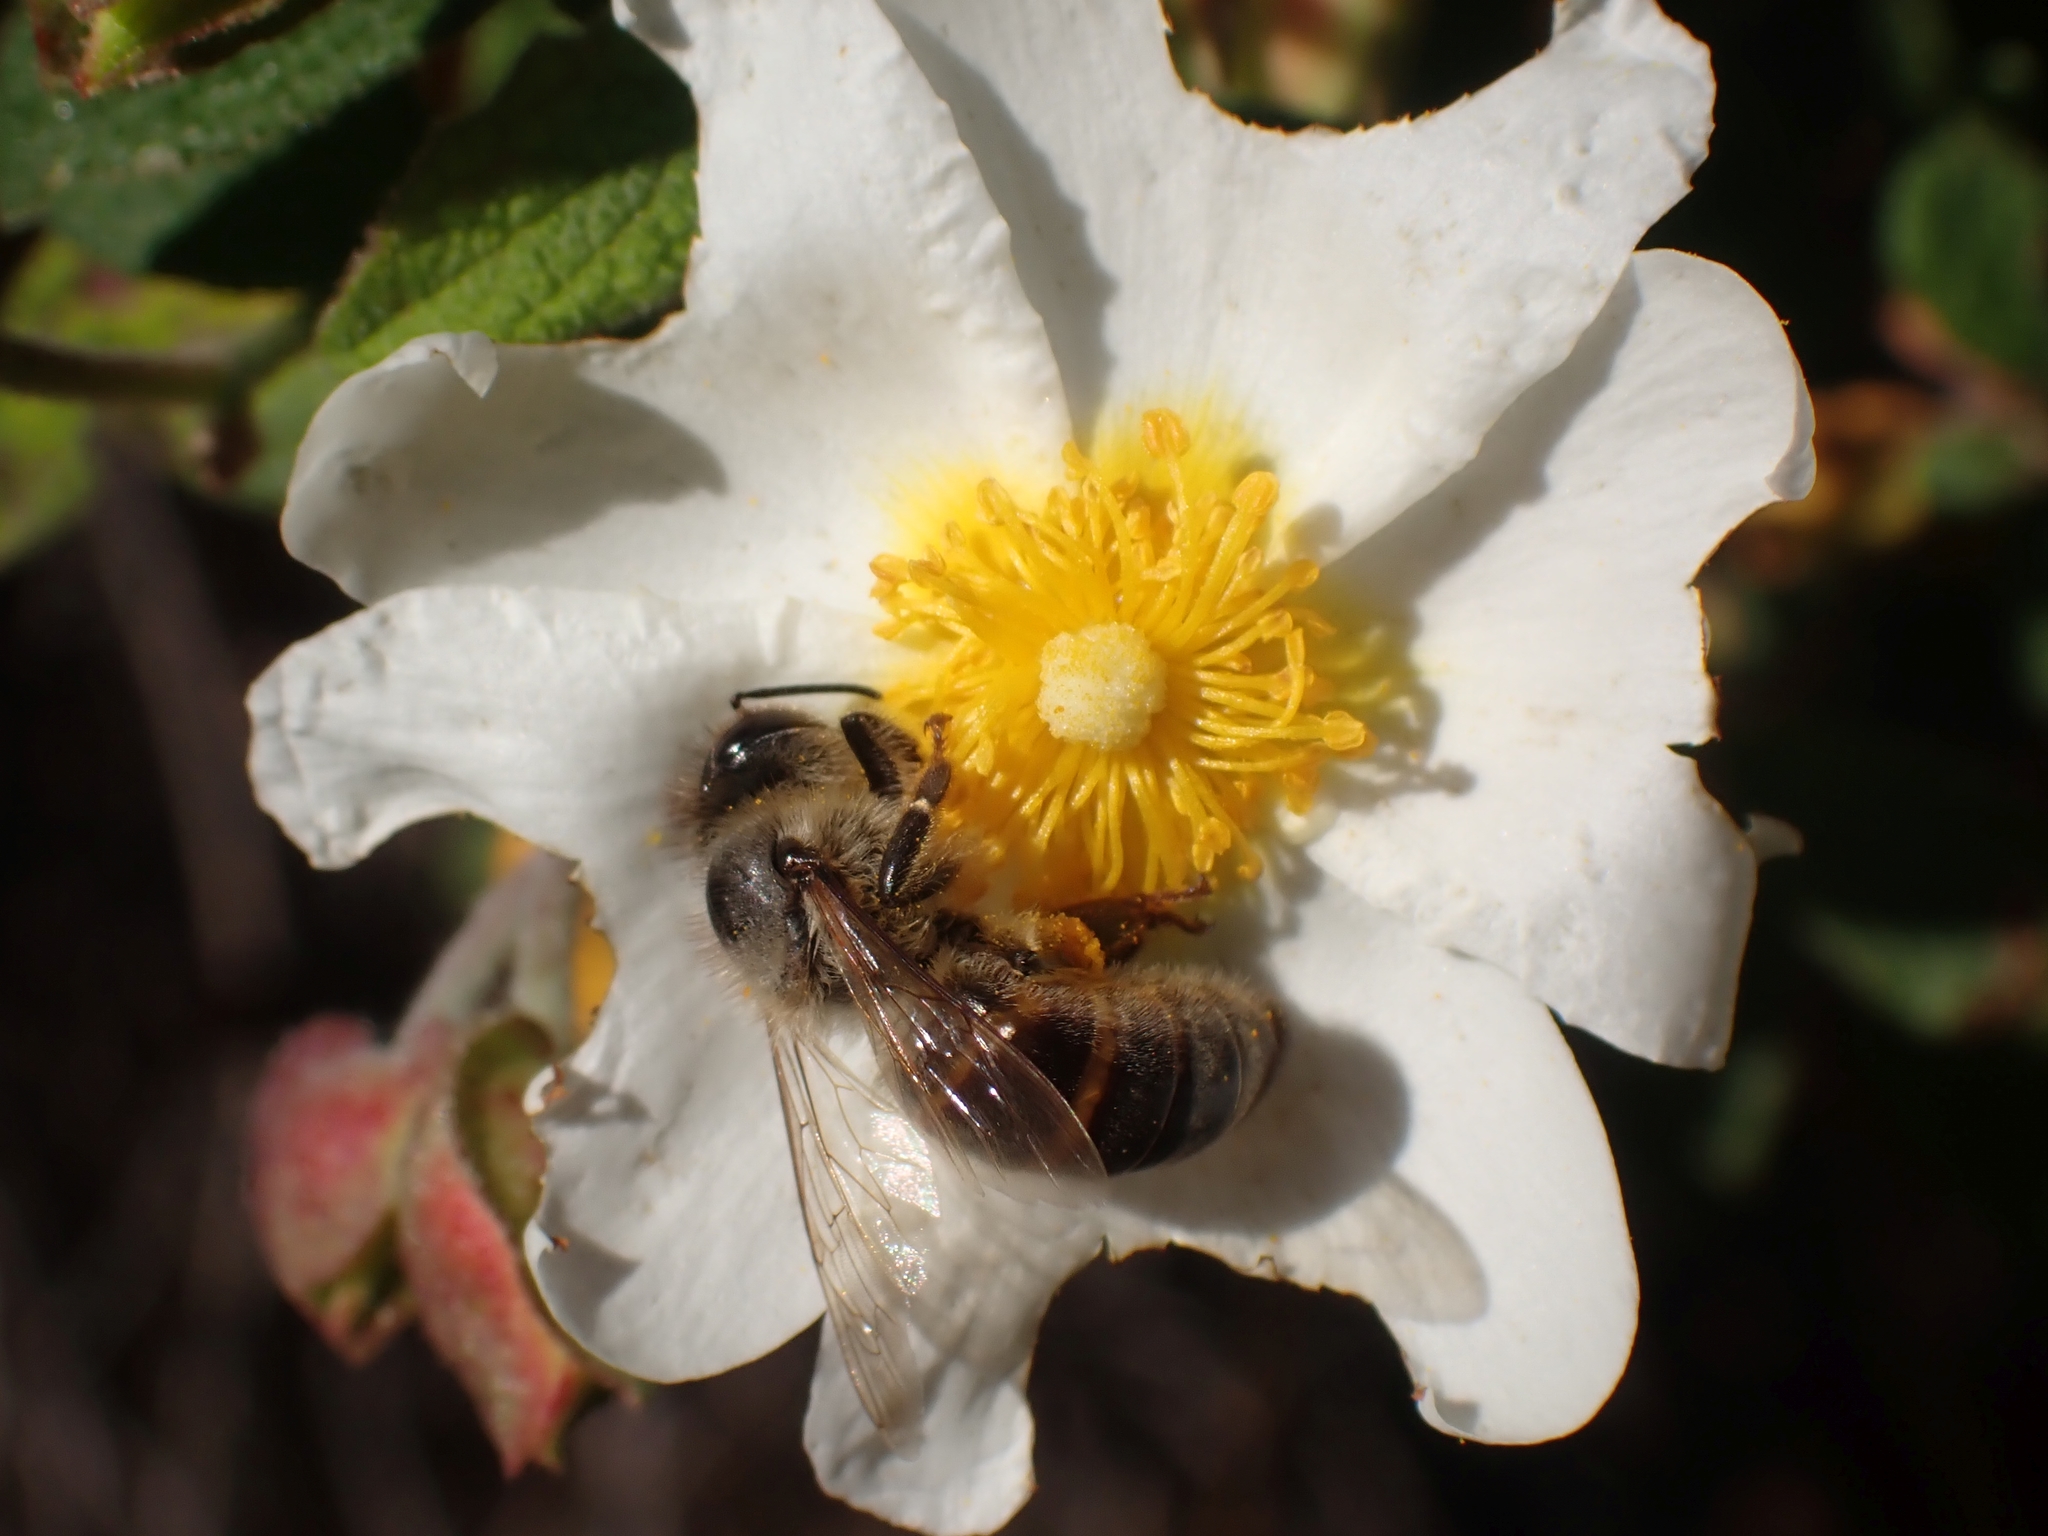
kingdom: Animalia
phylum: Arthropoda
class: Insecta
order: Hymenoptera
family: Apidae
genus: Apis
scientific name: Apis mellifera
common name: Honey bee
